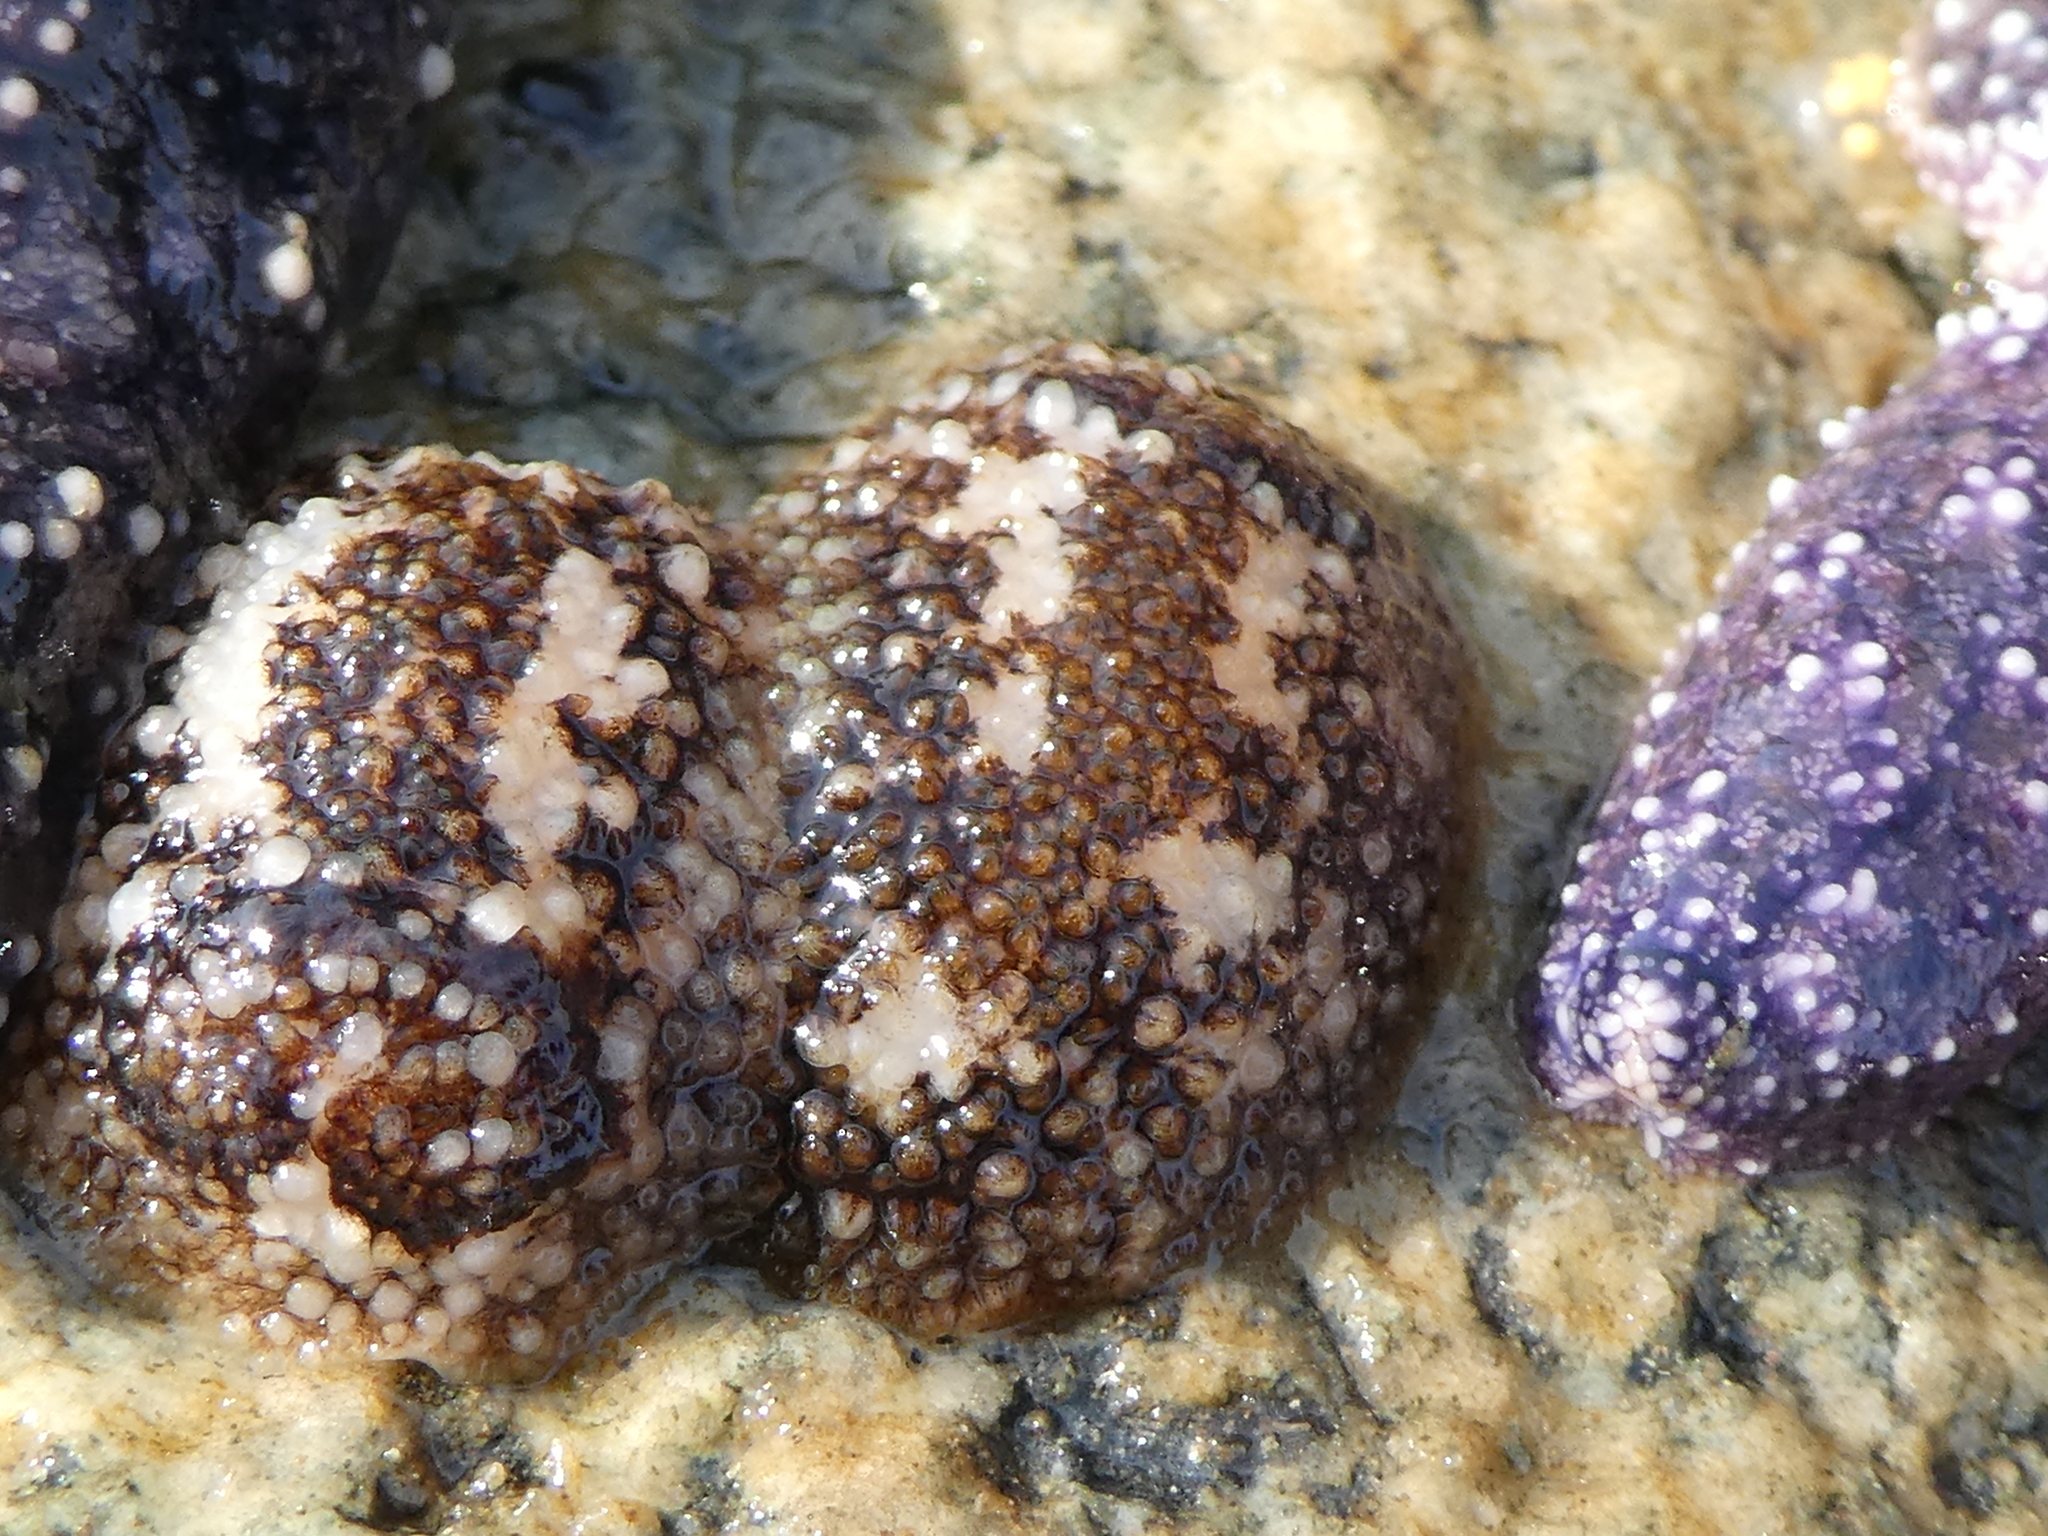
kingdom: Animalia
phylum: Mollusca
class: Gastropoda
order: Nudibranchia
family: Onchidorididae
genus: Onchidoris
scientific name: Onchidoris bilamellata
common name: Barnacle-eating onchidoris
